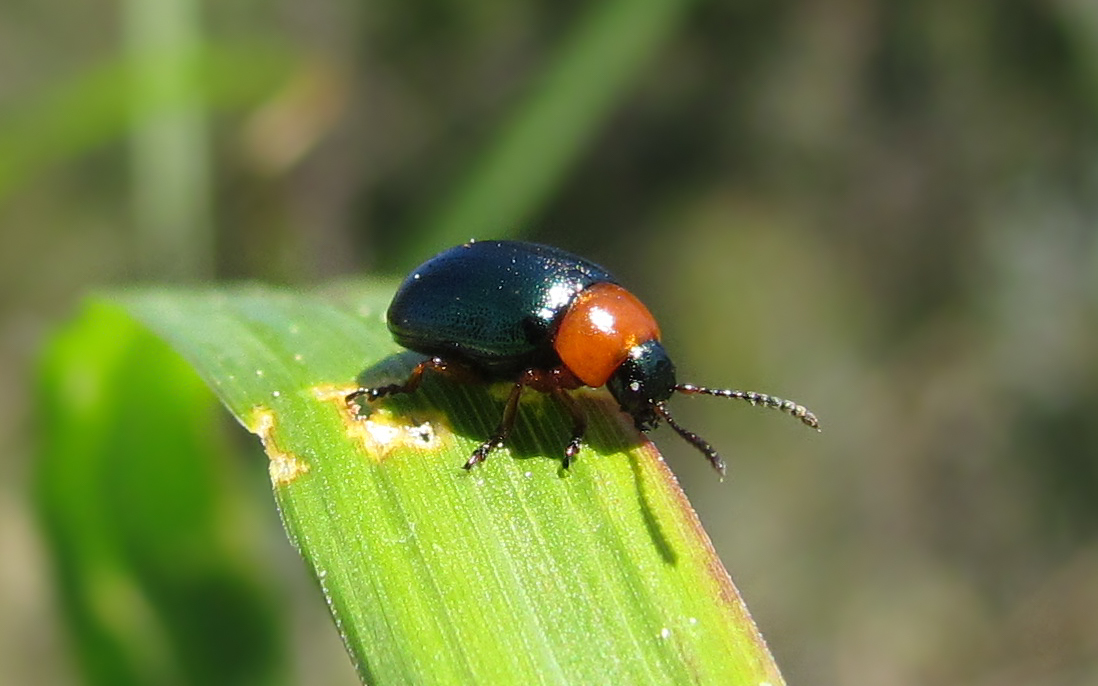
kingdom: Animalia
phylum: Arthropoda
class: Insecta
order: Coleoptera
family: Chrysomelidae
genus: Gastrophysa
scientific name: Gastrophysa polygoni
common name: Knotweed leaf beetle
